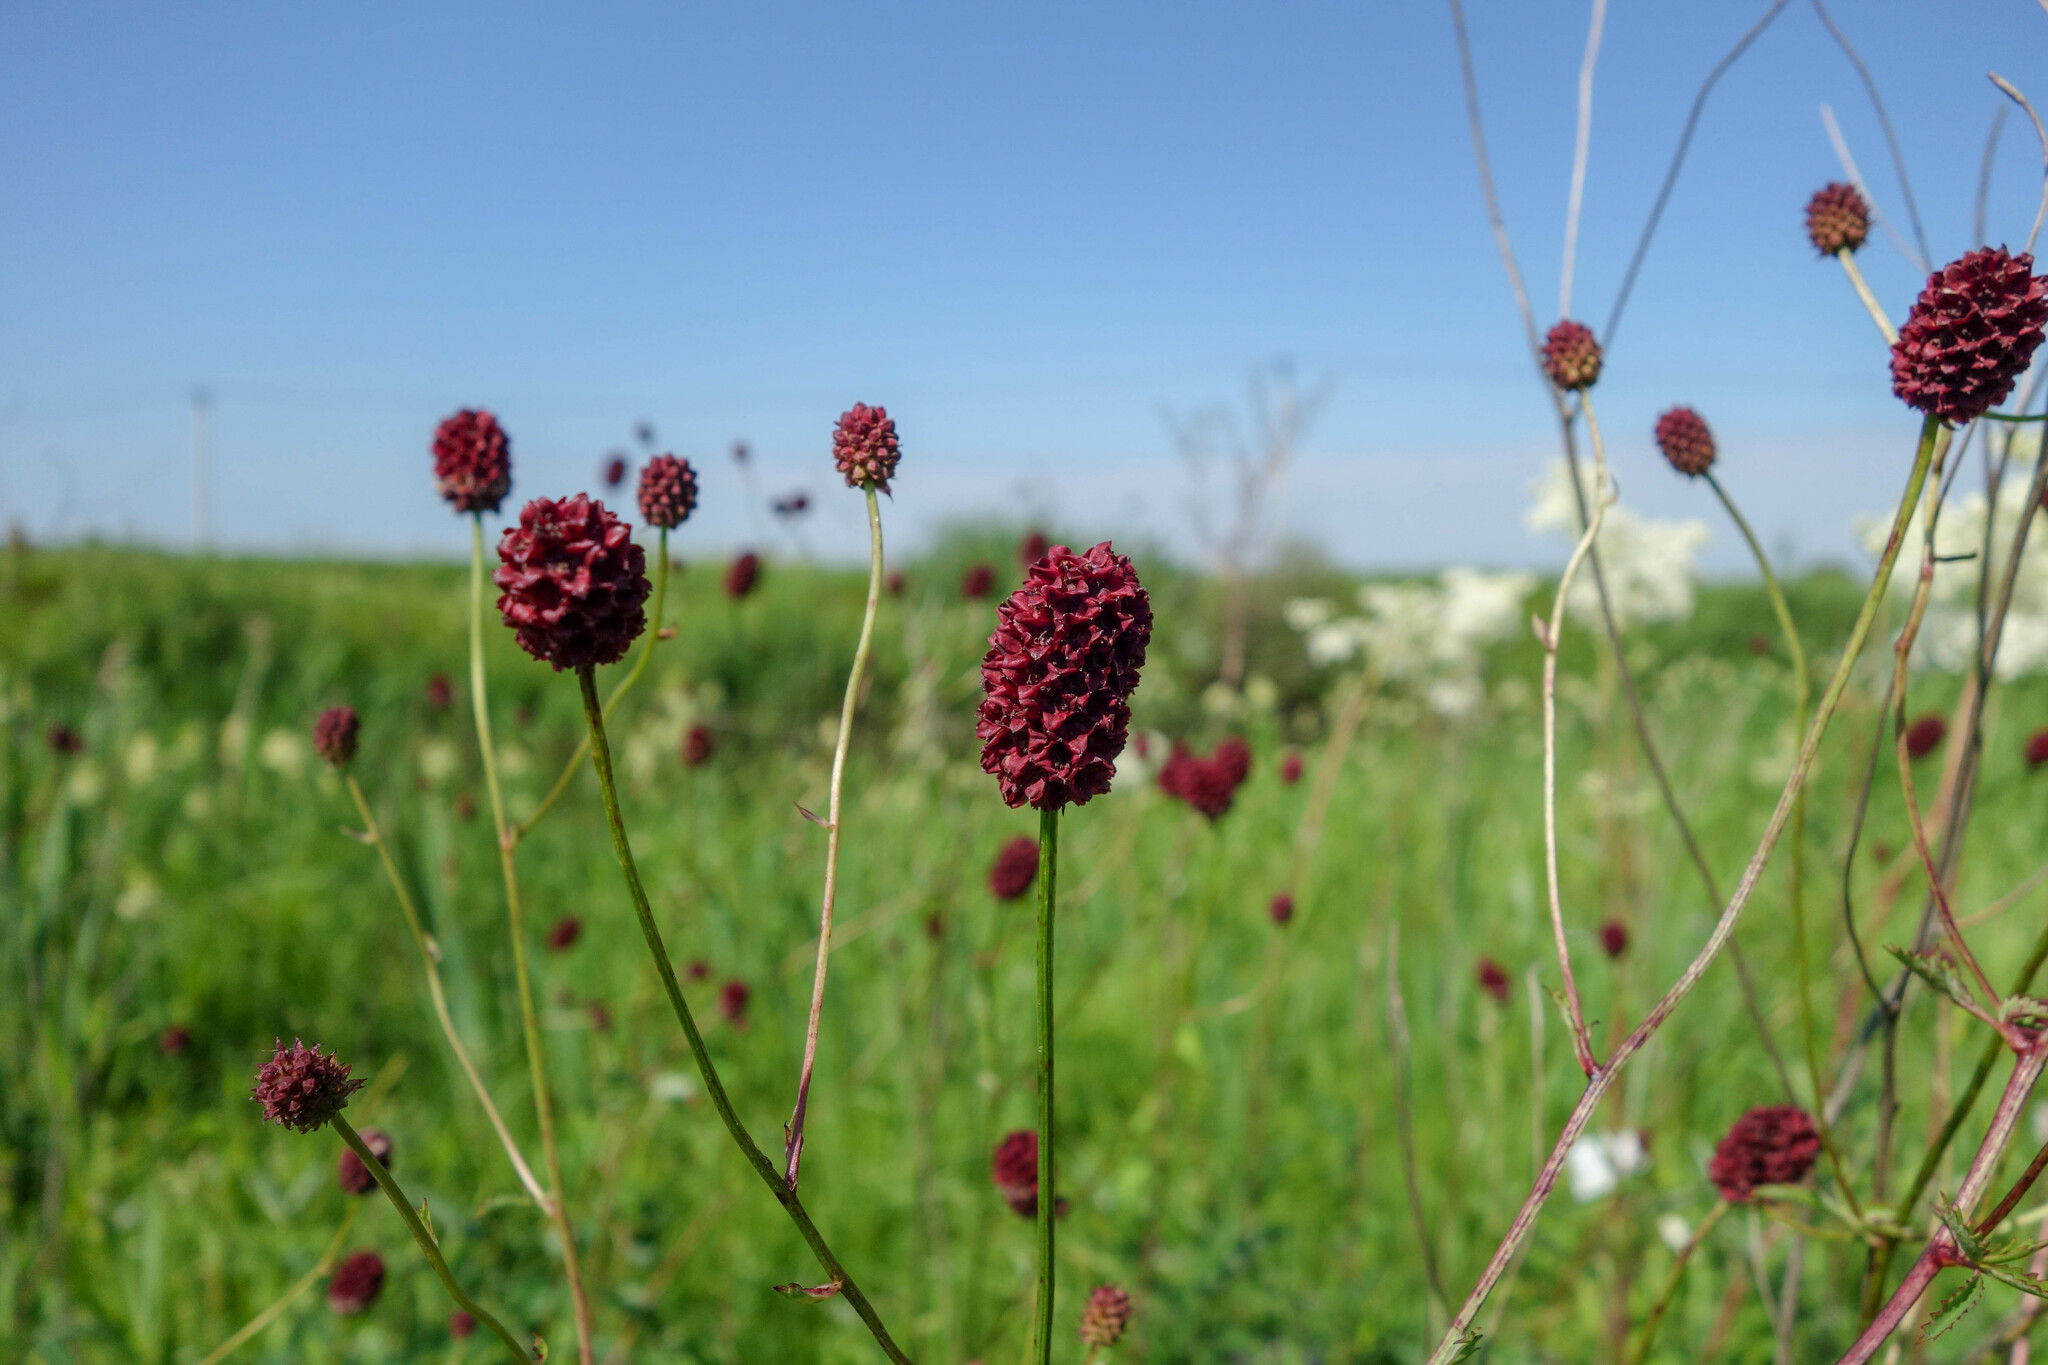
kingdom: Plantae
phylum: Tracheophyta
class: Magnoliopsida
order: Rosales
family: Rosaceae
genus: Sanguisorba
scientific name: Sanguisorba officinalis
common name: Great burnet
